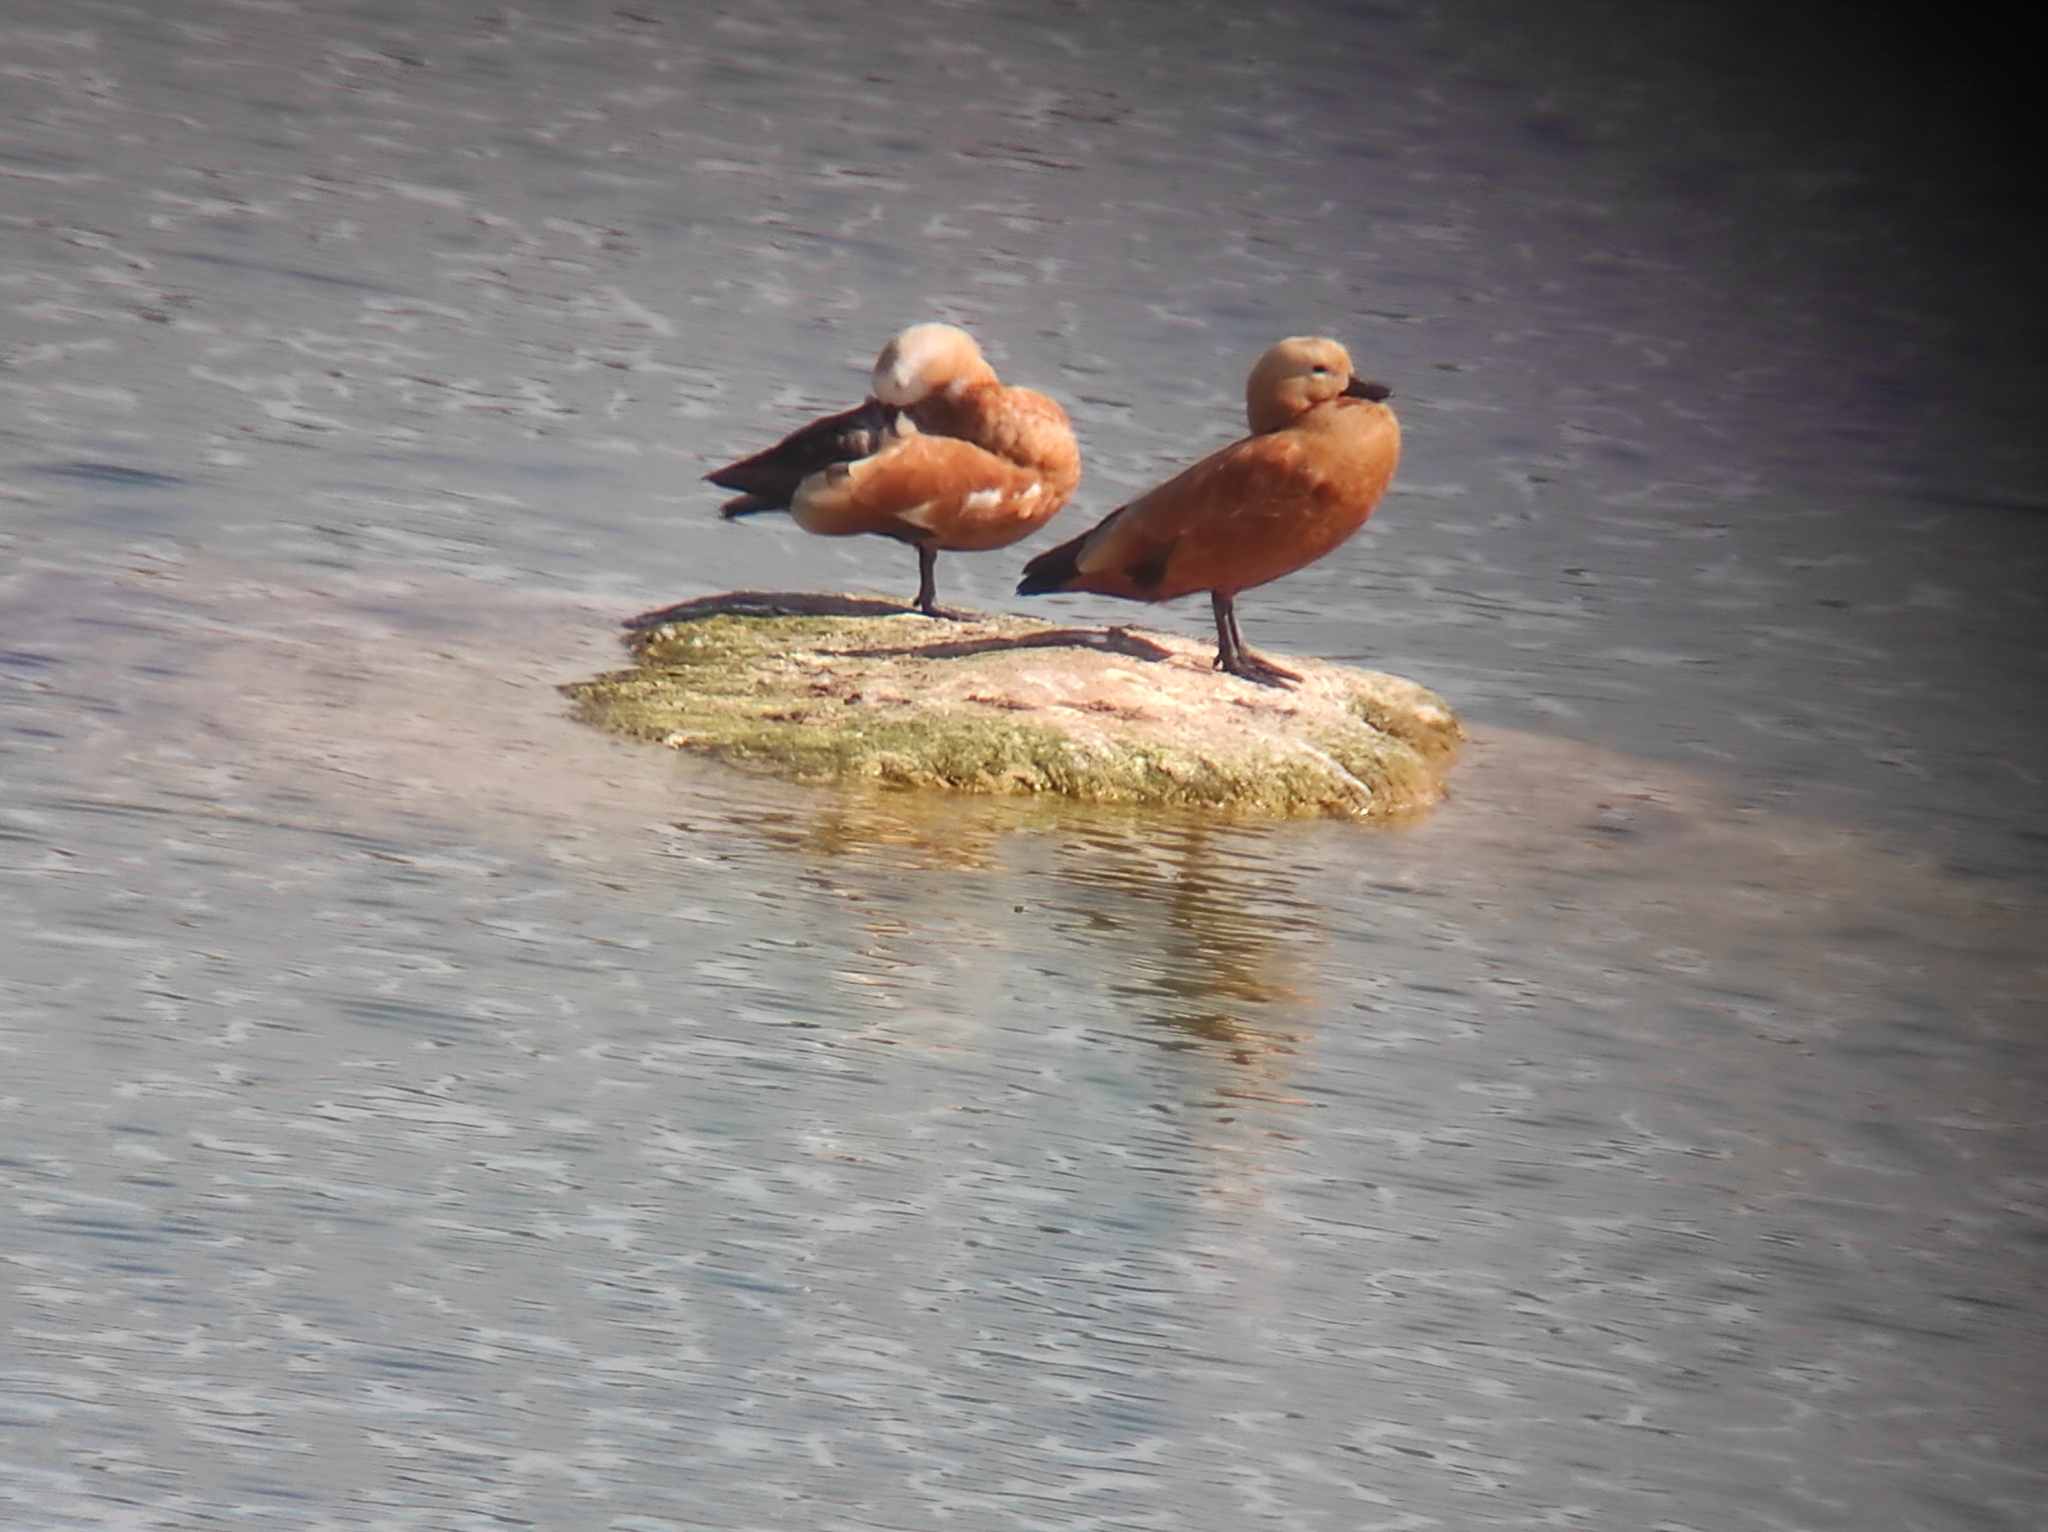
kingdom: Animalia
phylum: Chordata
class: Aves
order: Anseriformes
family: Anatidae
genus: Tadorna
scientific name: Tadorna ferruginea
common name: Ruddy shelduck
